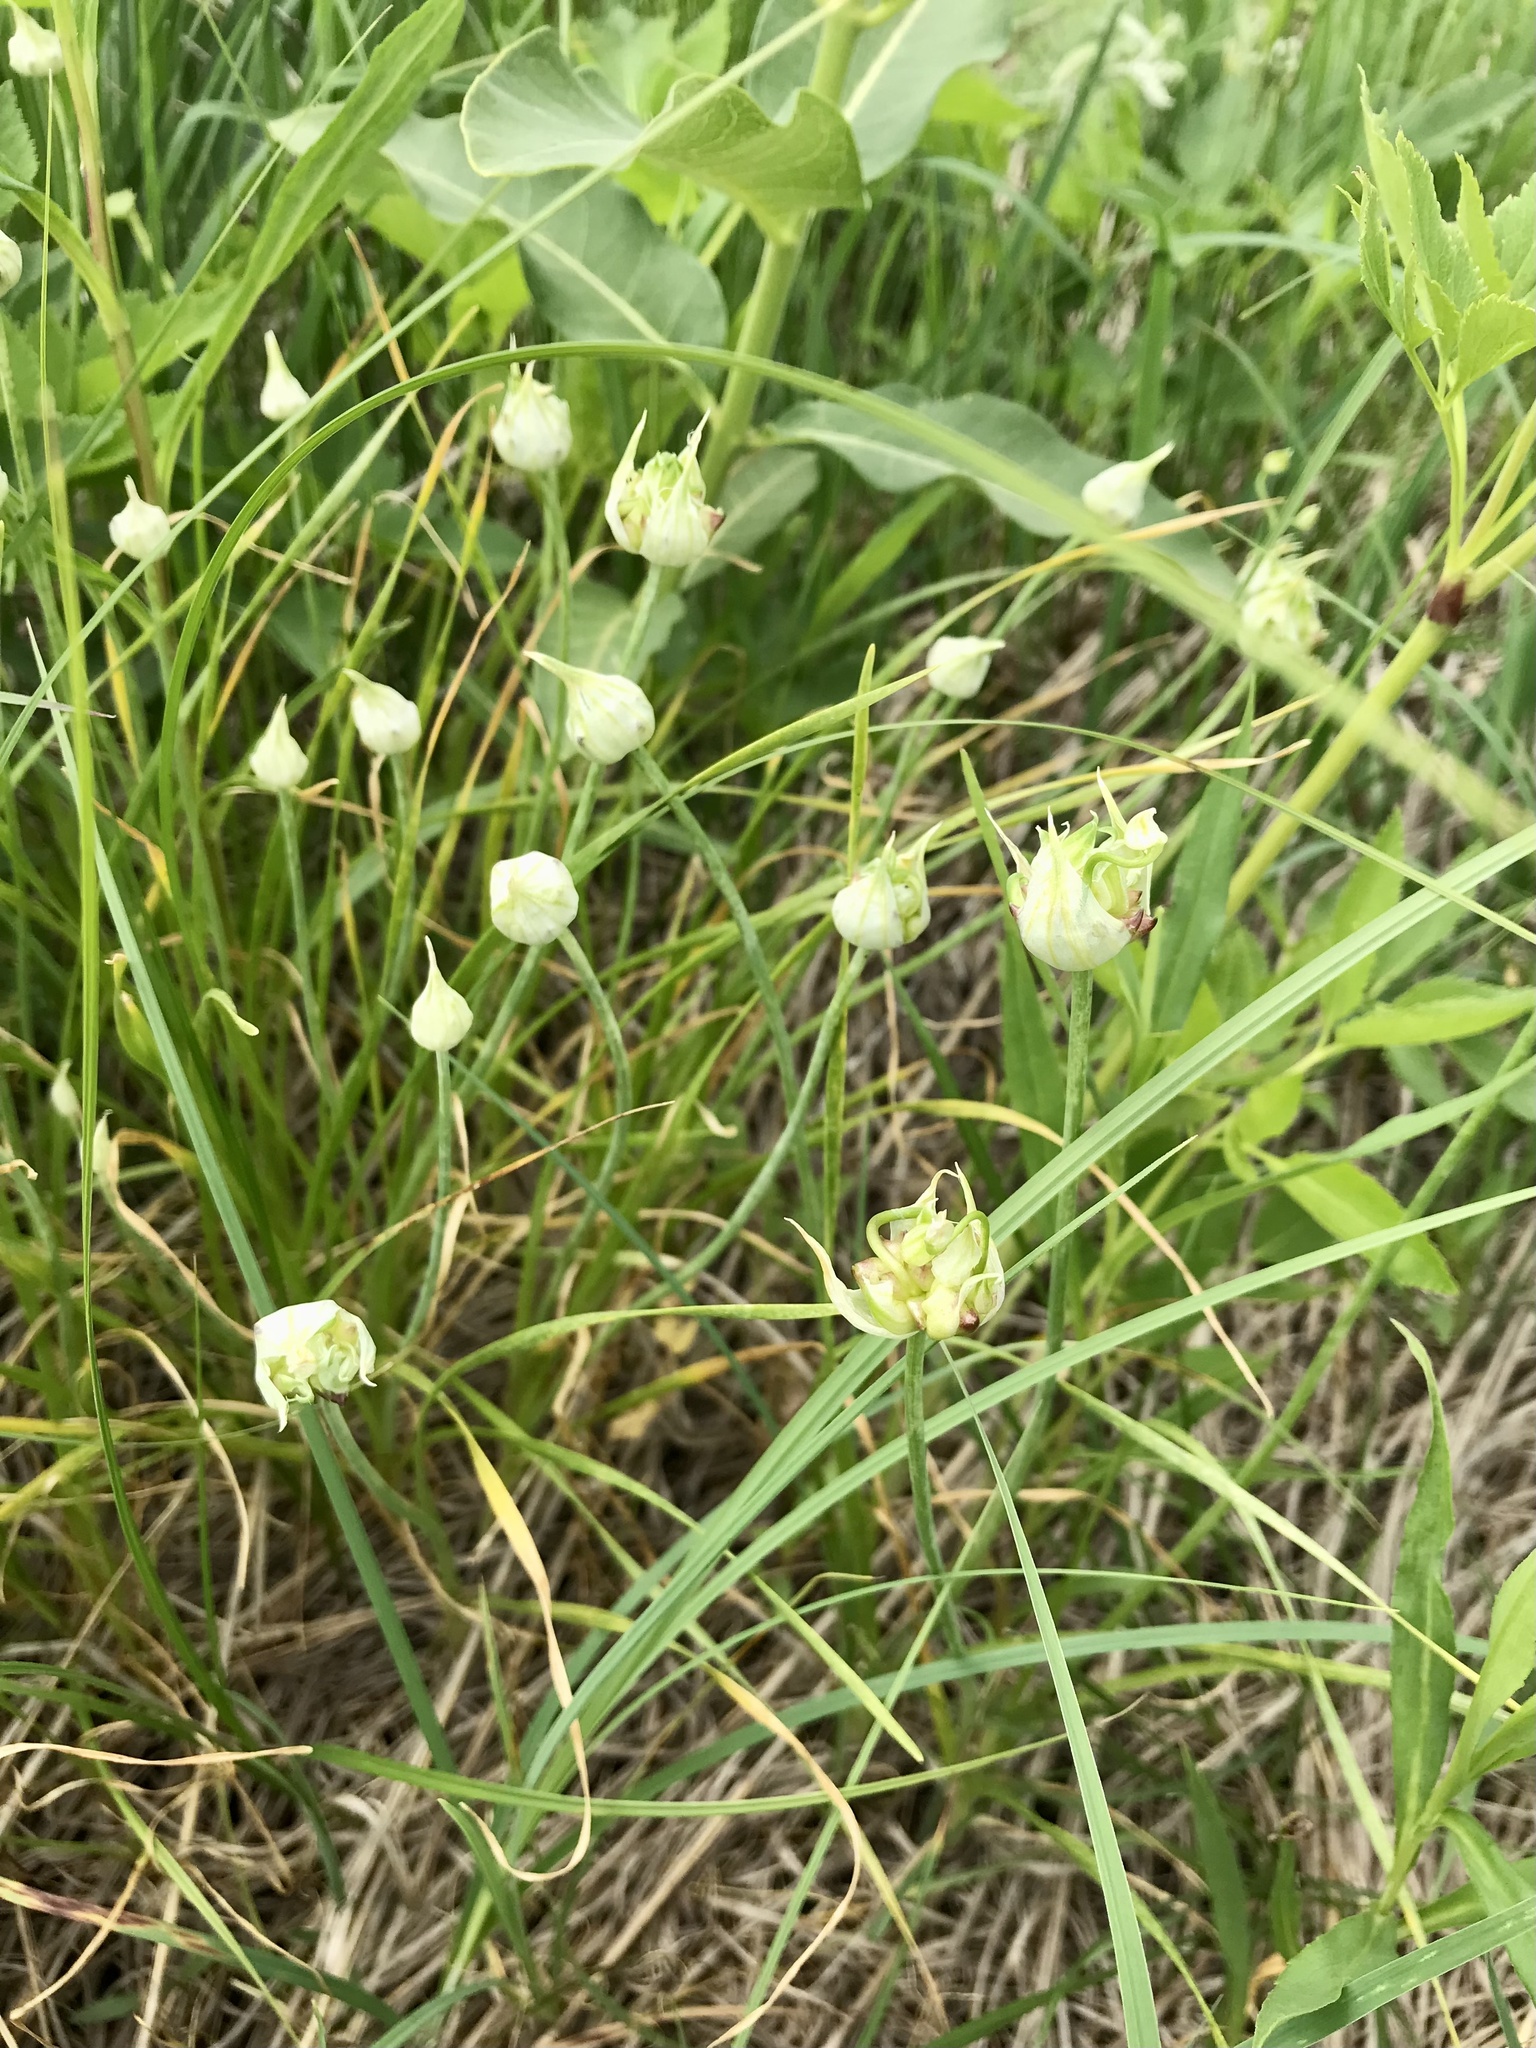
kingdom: Plantae
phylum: Tracheophyta
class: Liliopsida
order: Asparagales
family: Amaryllidaceae
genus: Allium
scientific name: Allium canadense
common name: Meadow garlic
